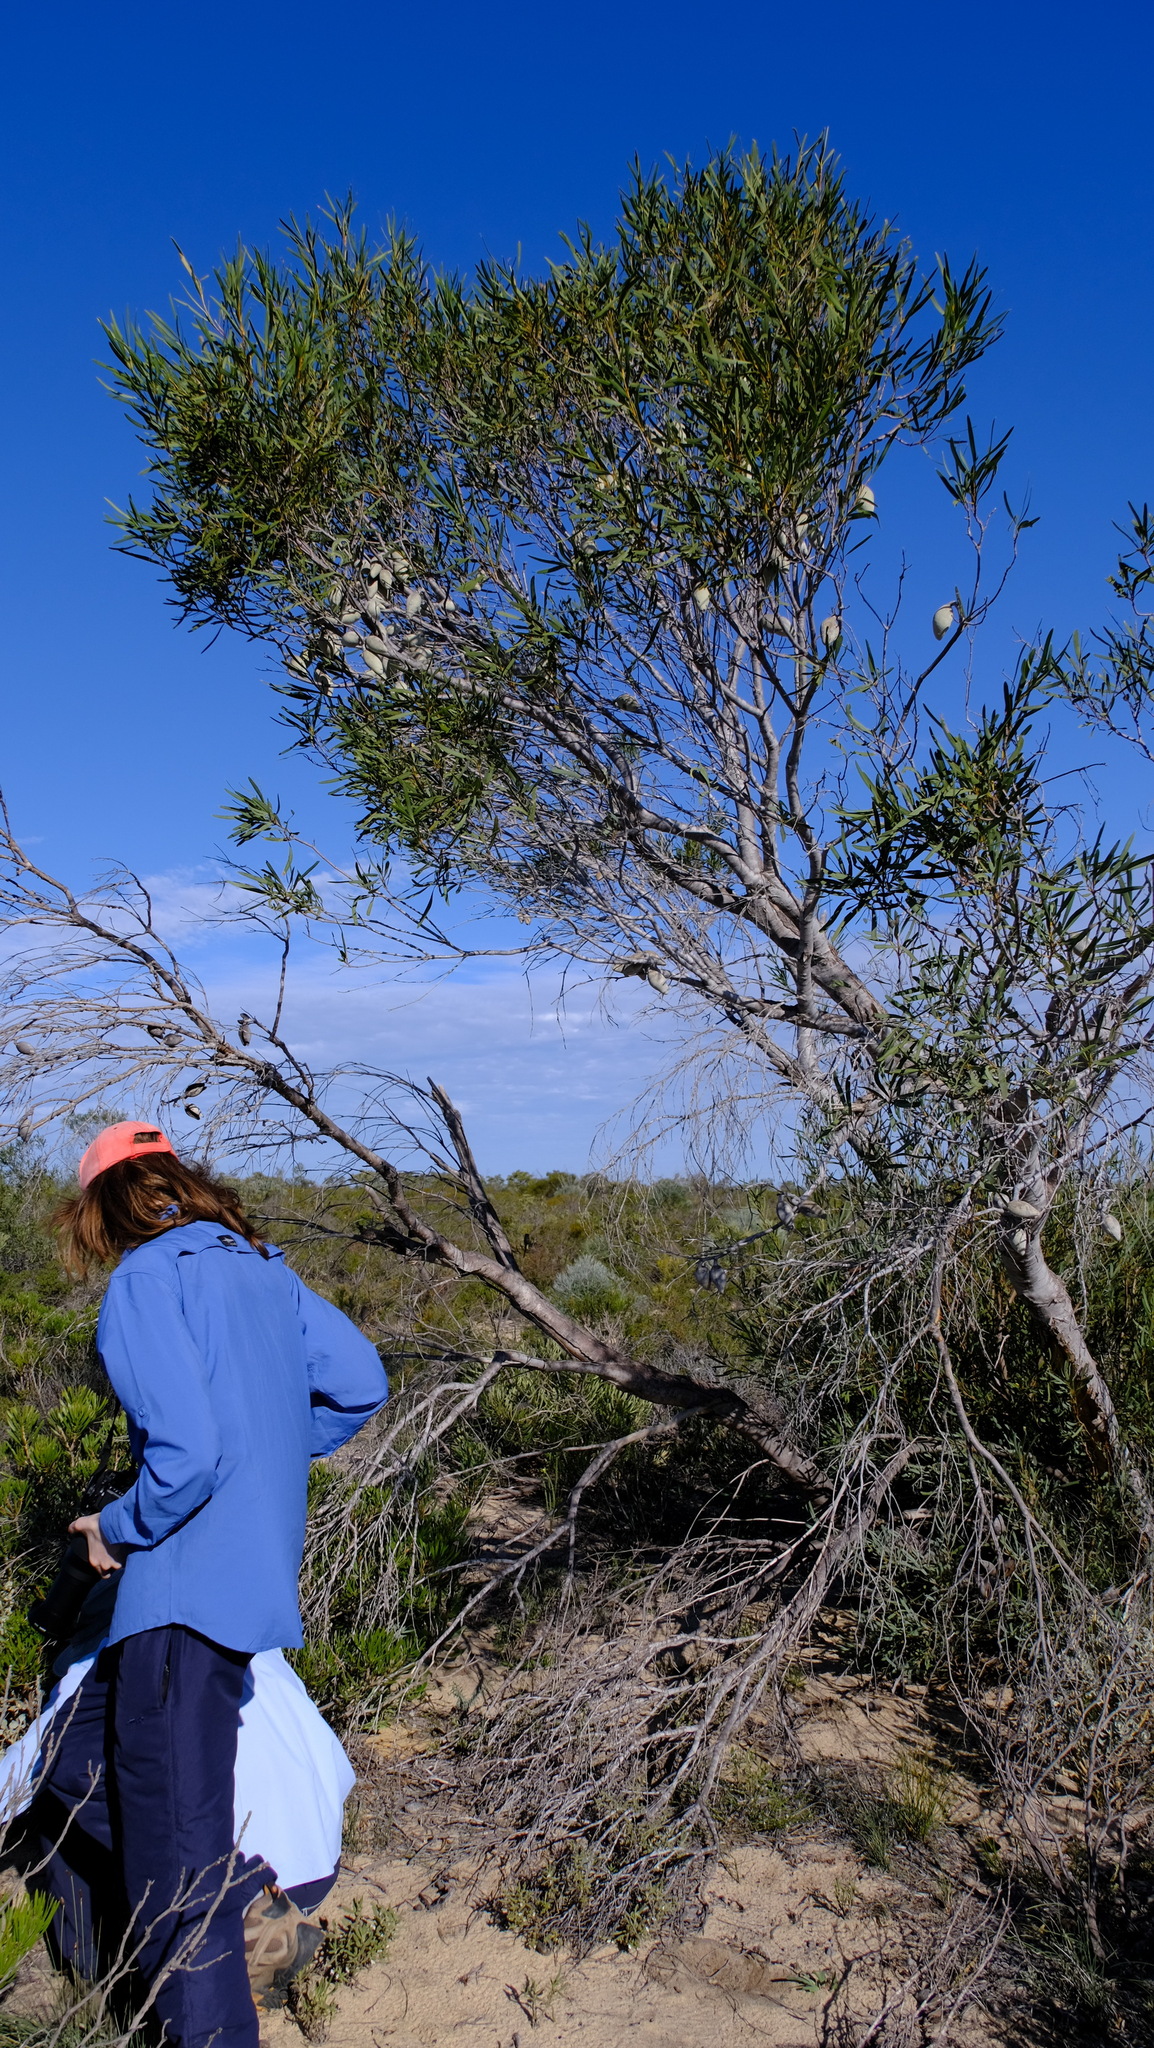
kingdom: Plantae
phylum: Tracheophyta
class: Magnoliopsida
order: Proteales
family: Proteaceae
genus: Xylomelum
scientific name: Xylomelum angustifolium
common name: Sandplain woody-pear
